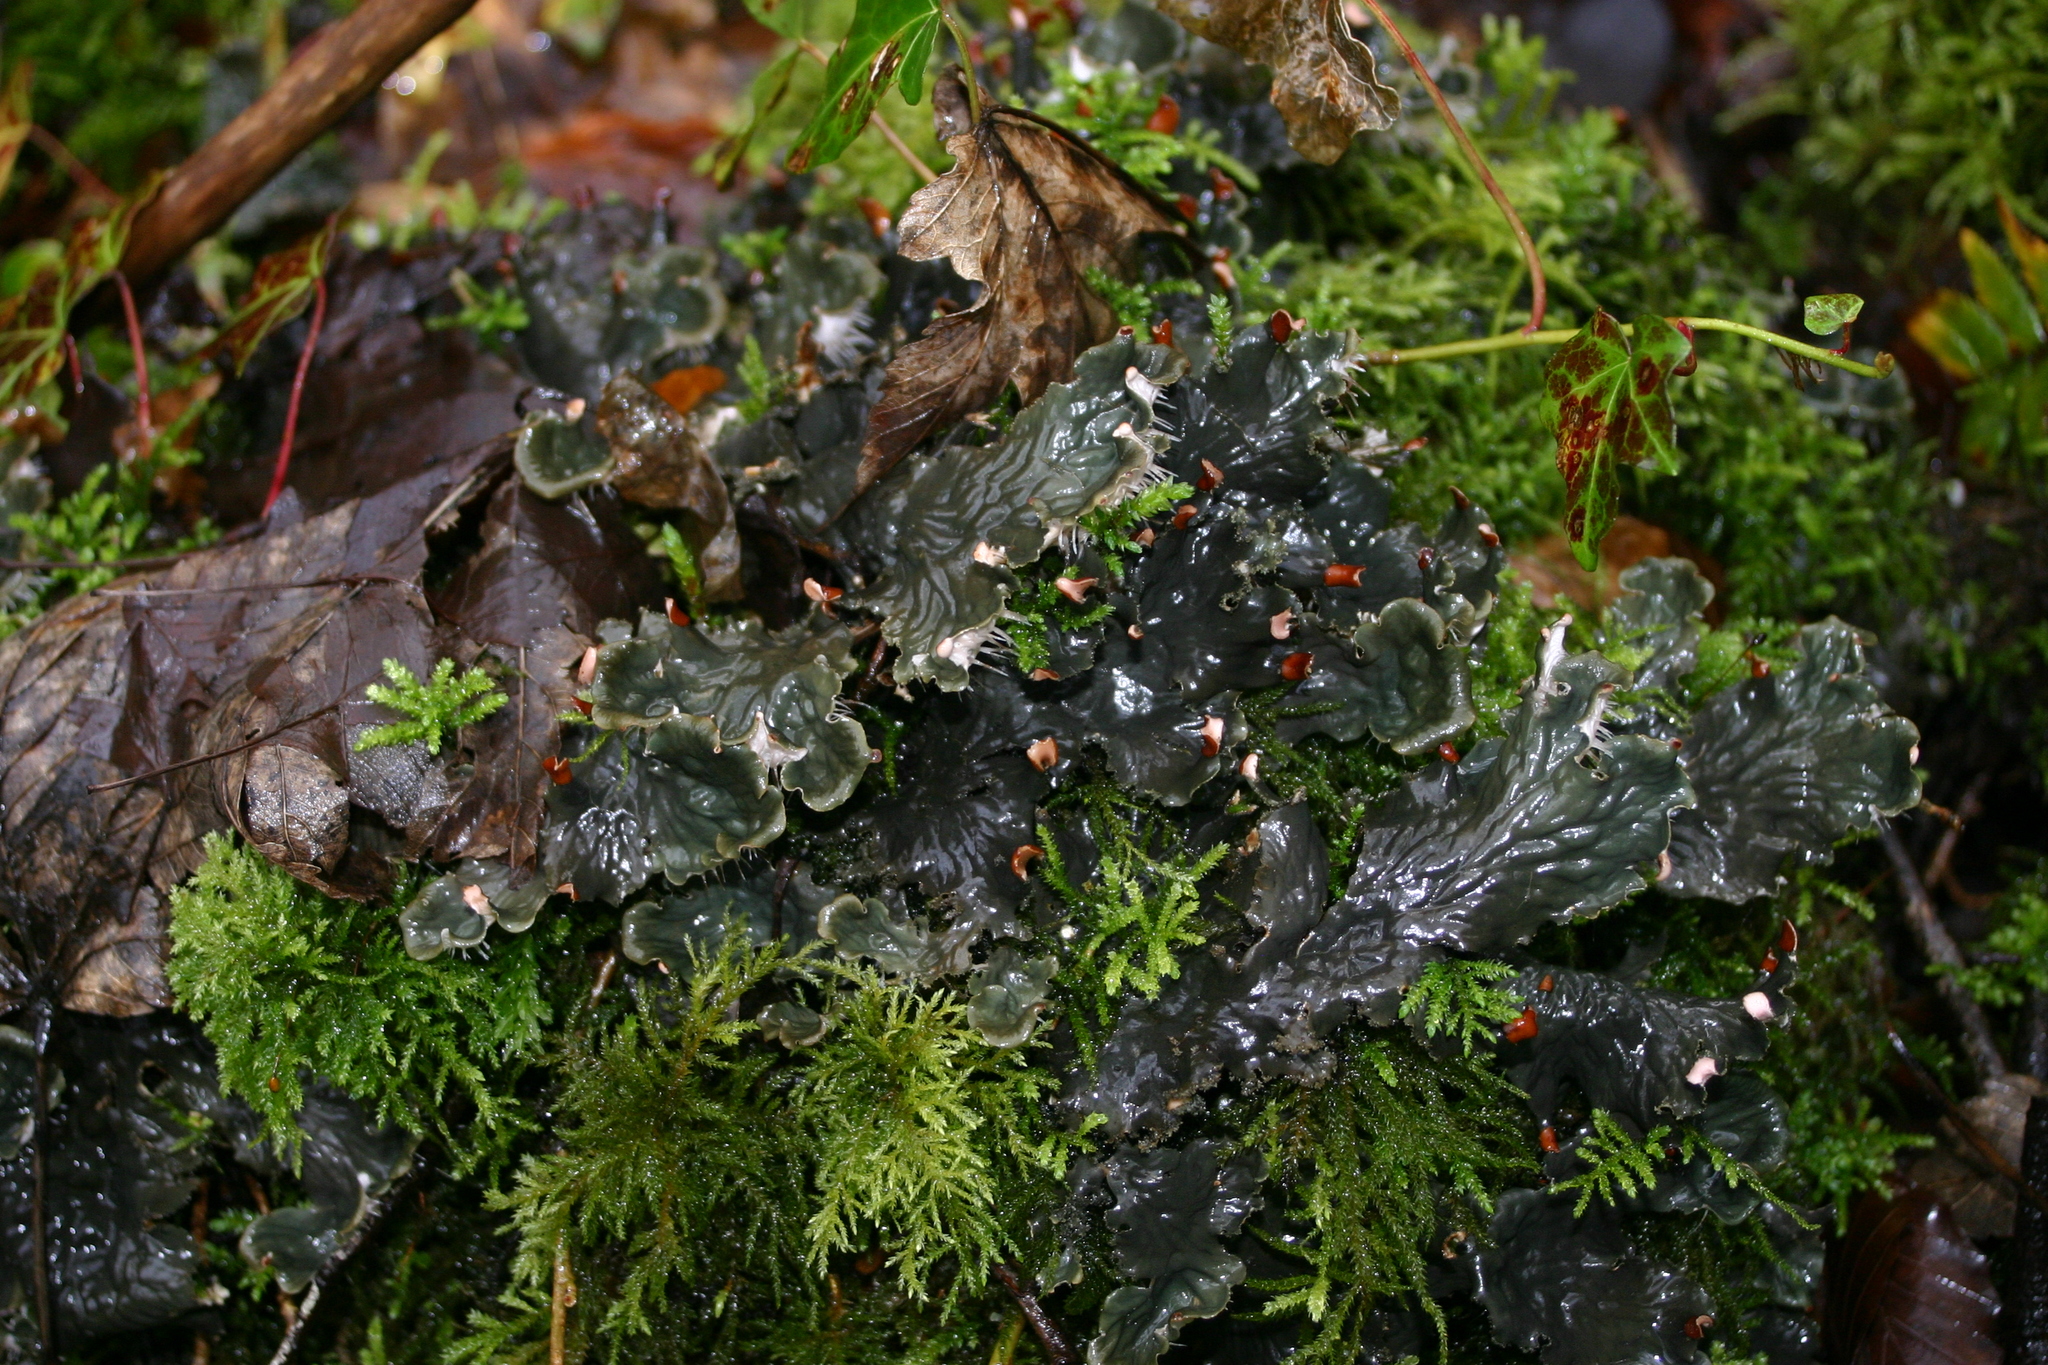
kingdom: Fungi
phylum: Ascomycota
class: Lecanoromycetes
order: Peltigerales
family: Peltigeraceae
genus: Peltigera
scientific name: Peltigera praetextata
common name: Scaly dog-lichen
